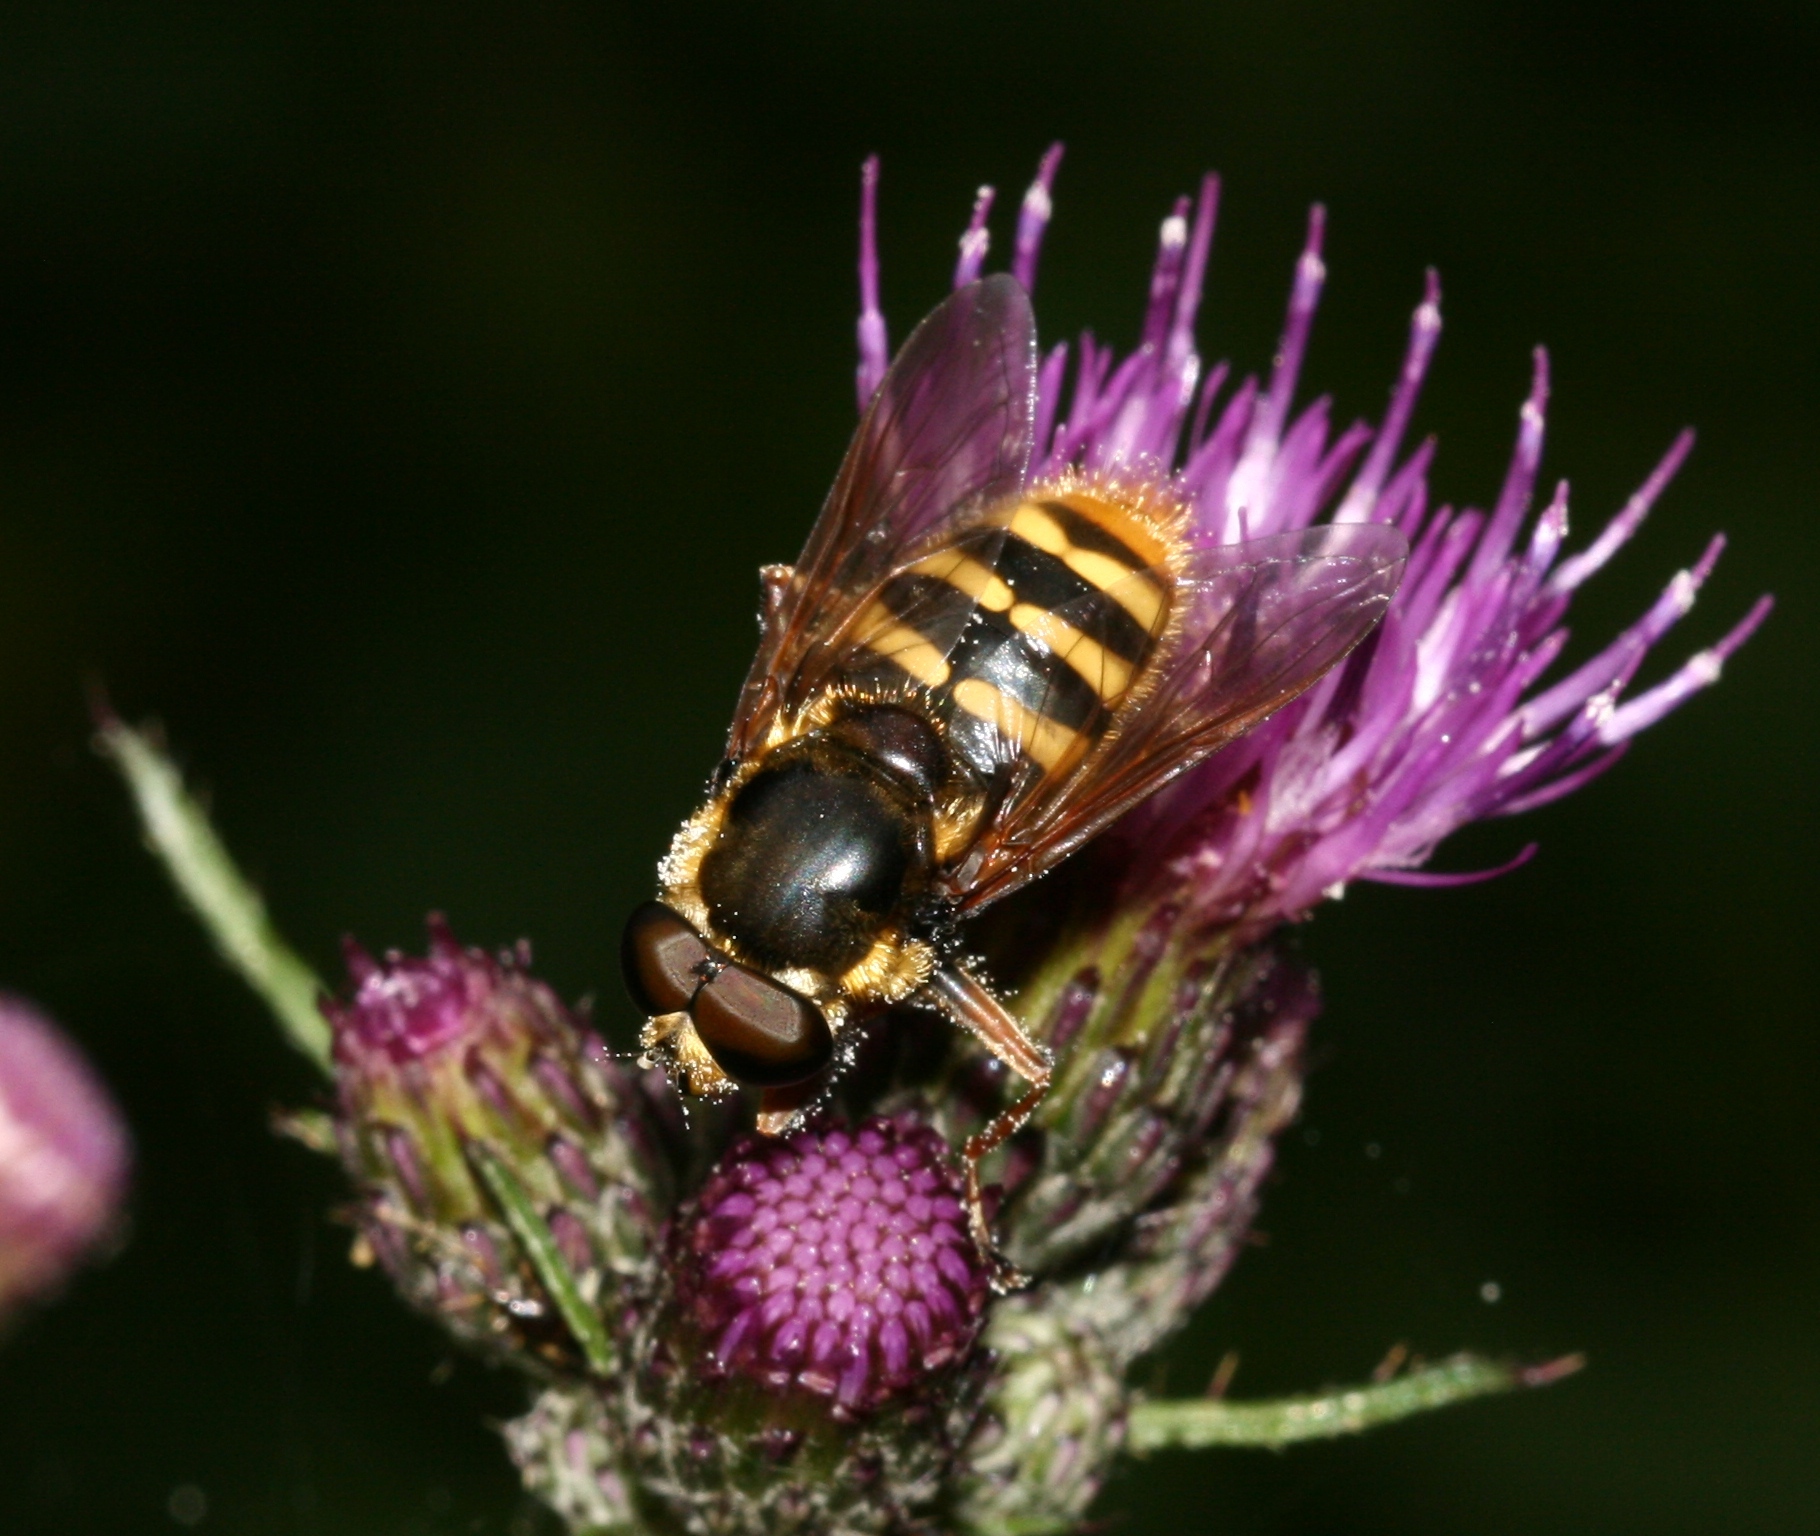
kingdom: Animalia
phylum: Arthropoda
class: Insecta
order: Diptera
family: Syrphidae
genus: Sericomyia
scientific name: Sericomyia silentis
